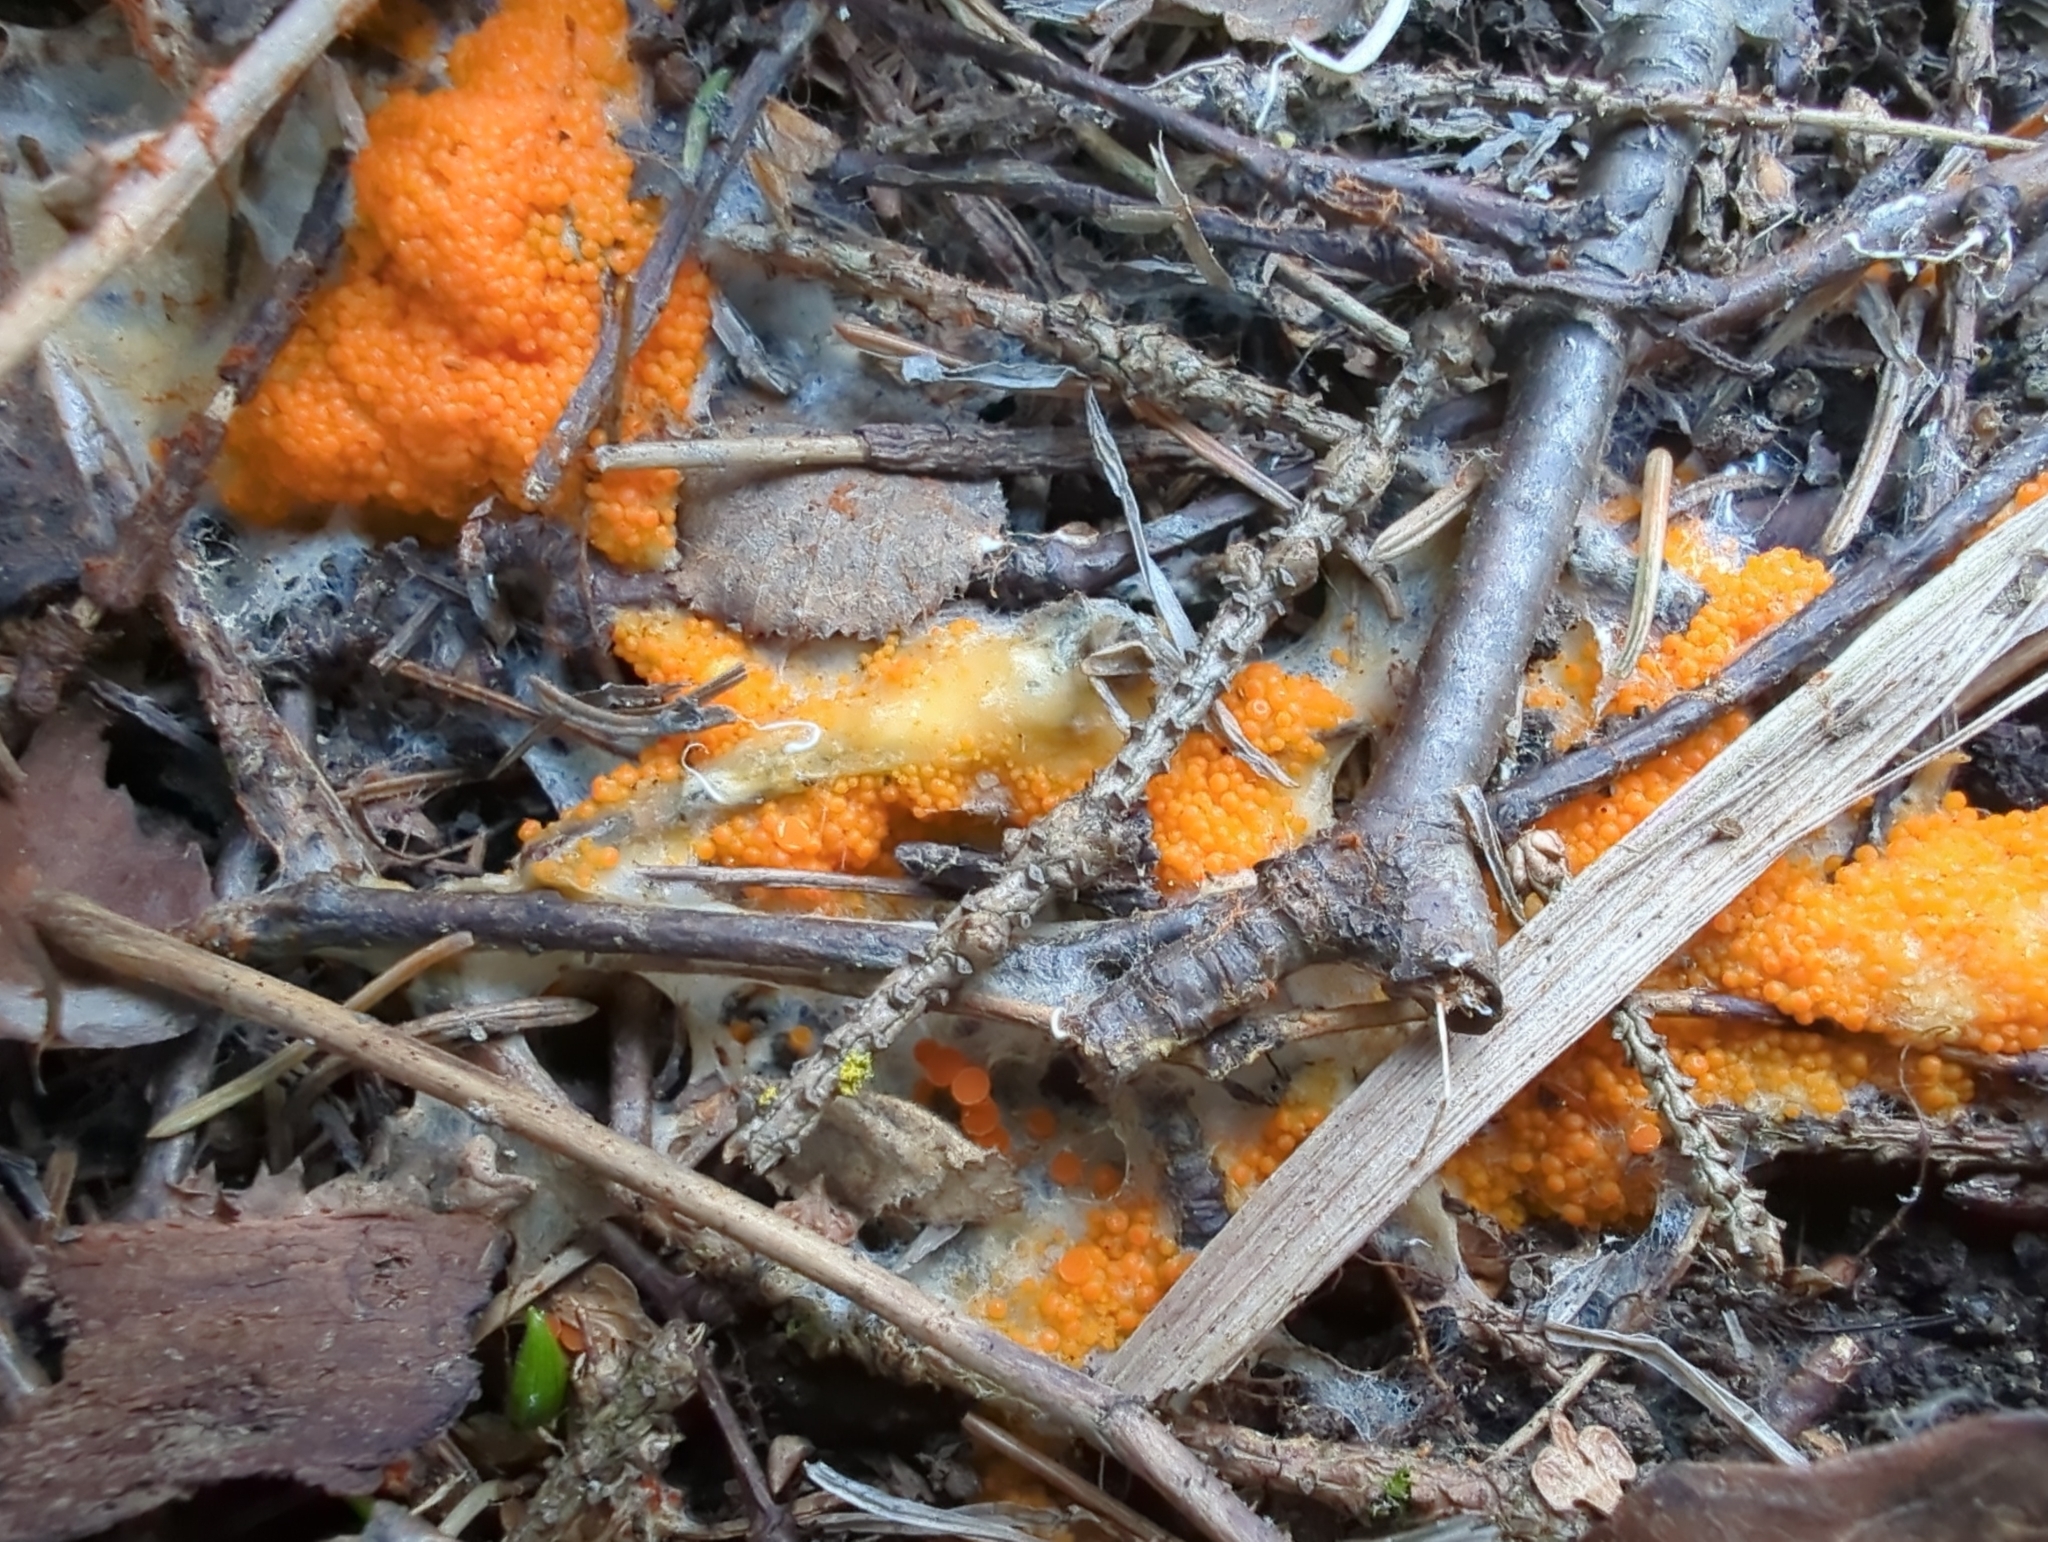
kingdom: Fungi
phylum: Ascomycota
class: Pezizomycetes
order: Pezizales
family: Pyronemataceae
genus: Byssonectria
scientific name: Byssonectria terrestris
